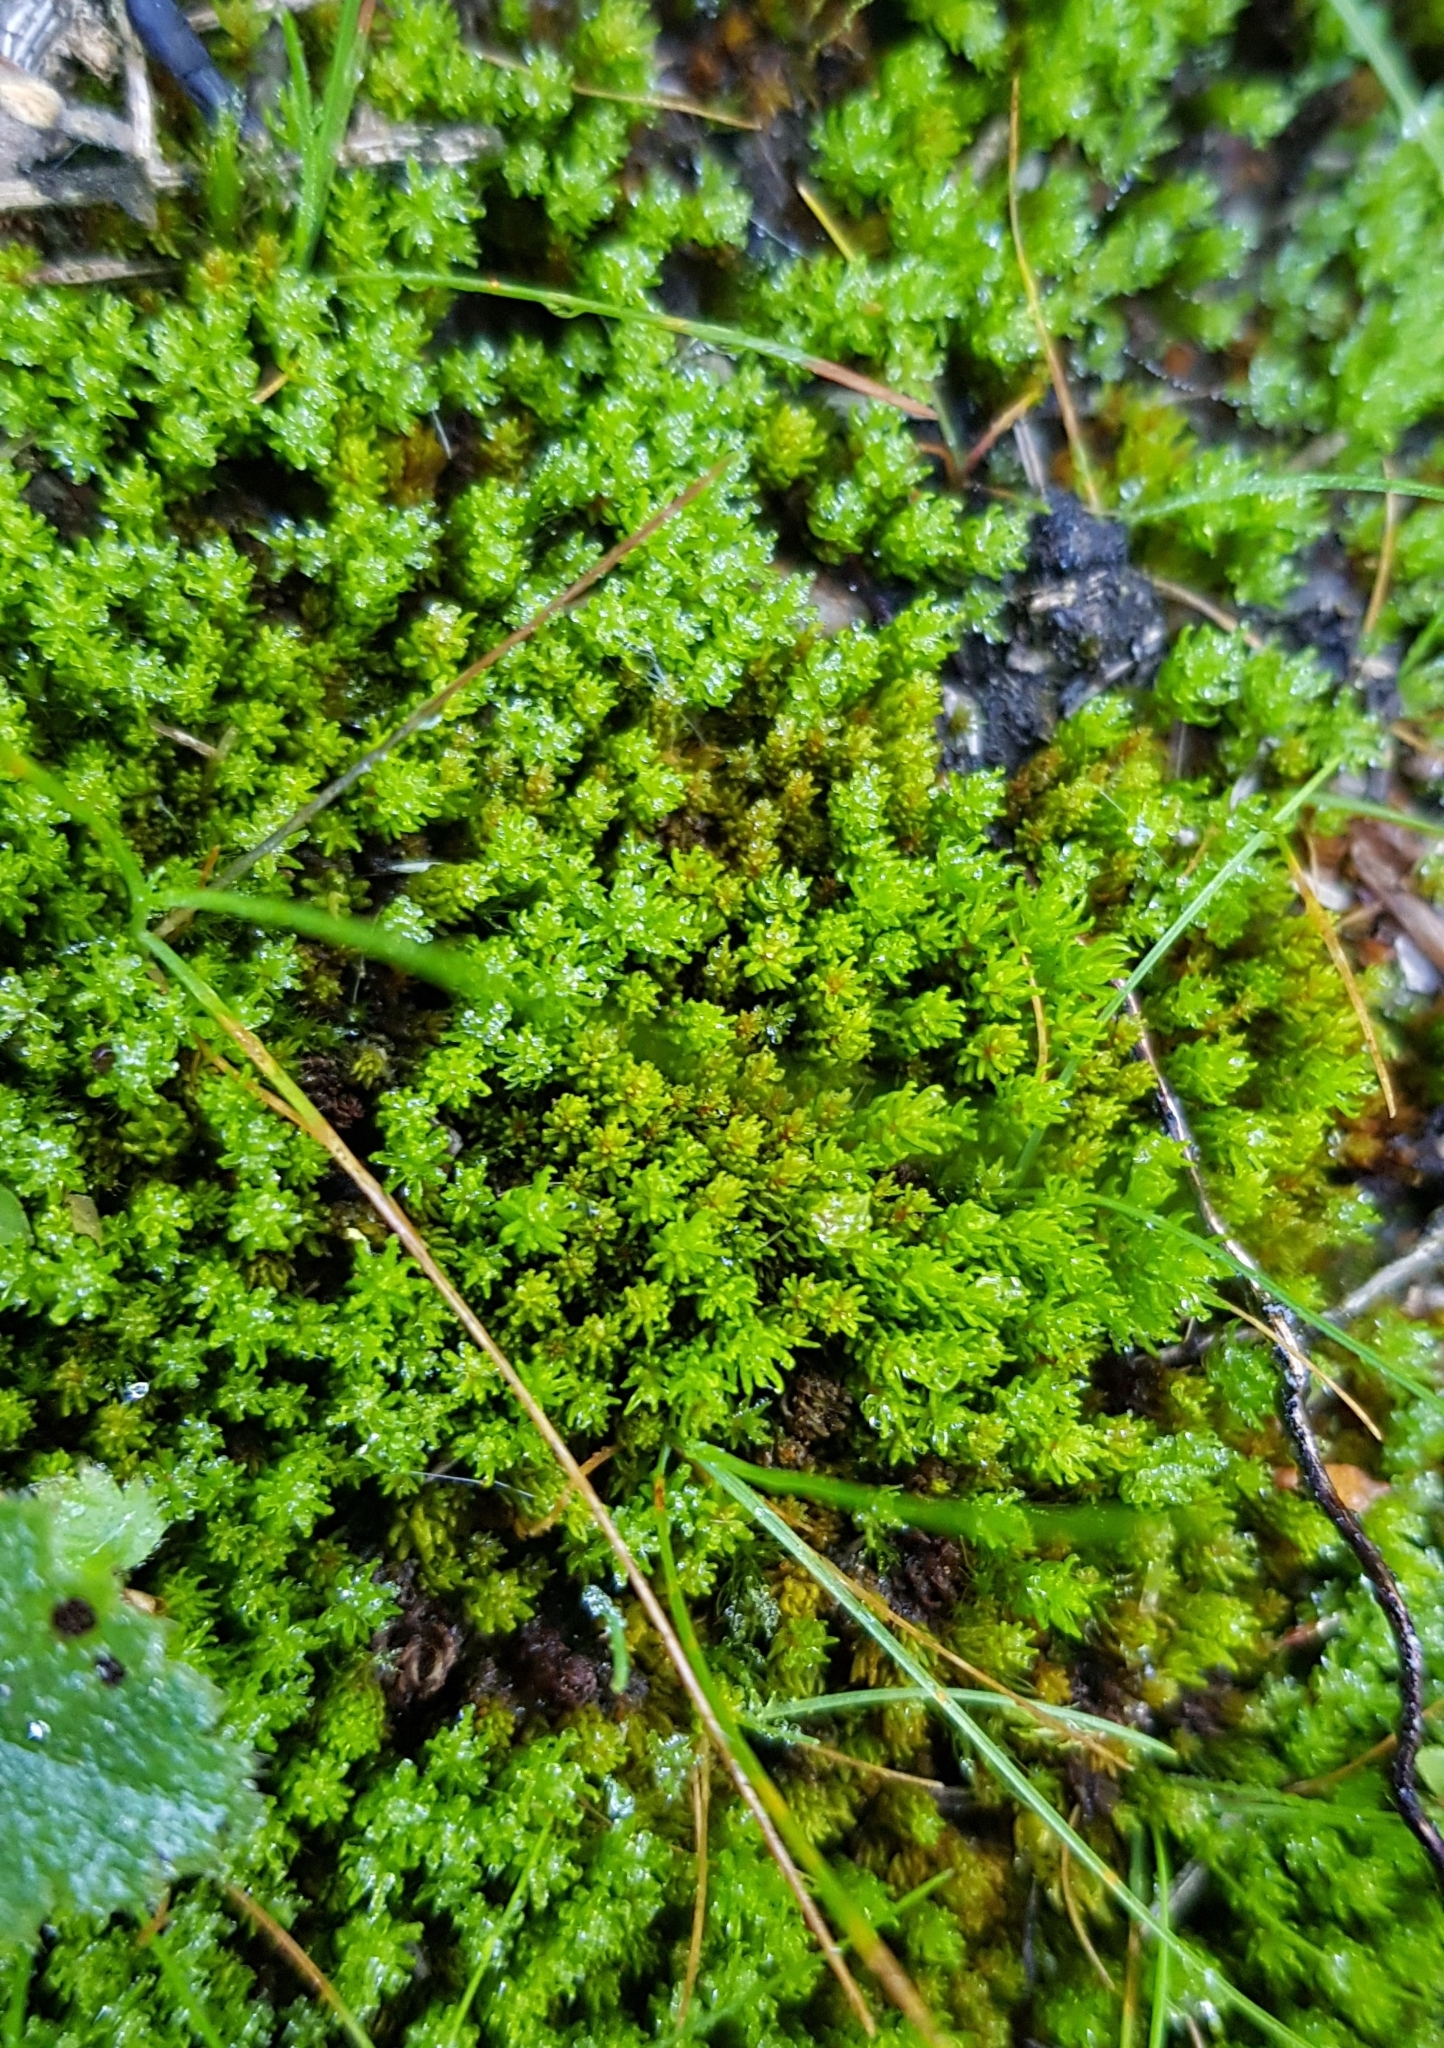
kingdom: Plantae
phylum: Bryophyta
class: Polytrichopsida
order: Polytrichales
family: Polytrichaceae
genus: Oligotrichum
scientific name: Oligotrichum hercynicum
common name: Hercynian hair moss
